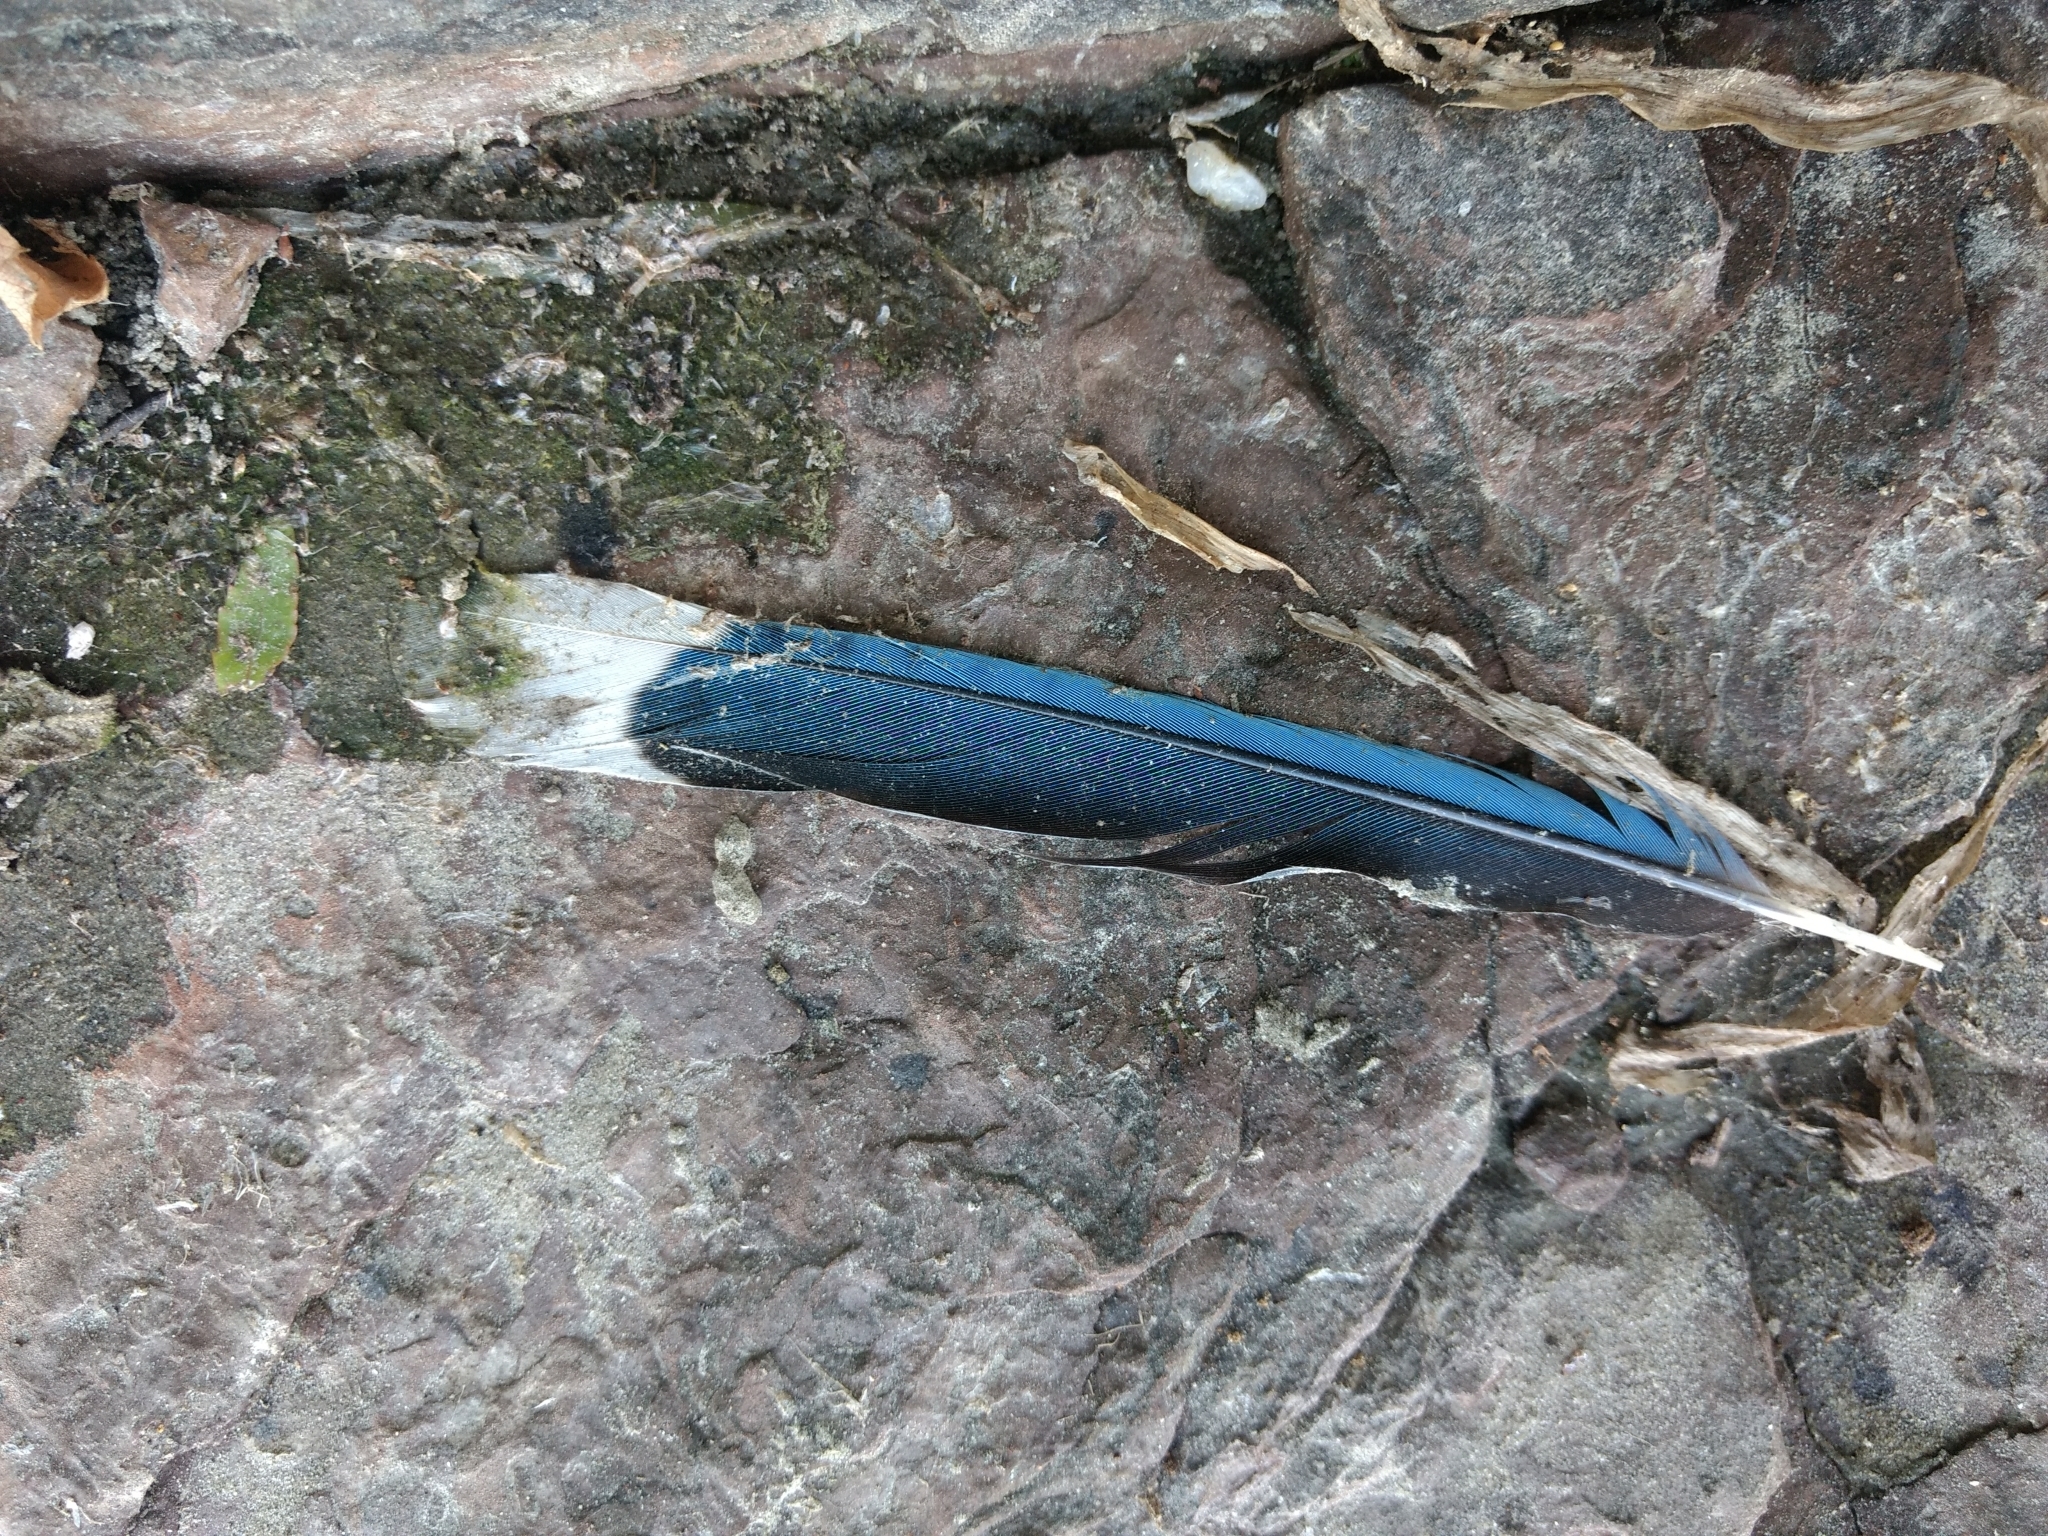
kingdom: Animalia
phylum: Chordata
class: Aves
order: Passeriformes
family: Corvidae
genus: Cyanocitta
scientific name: Cyanocitta cristata
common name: Blue jay
